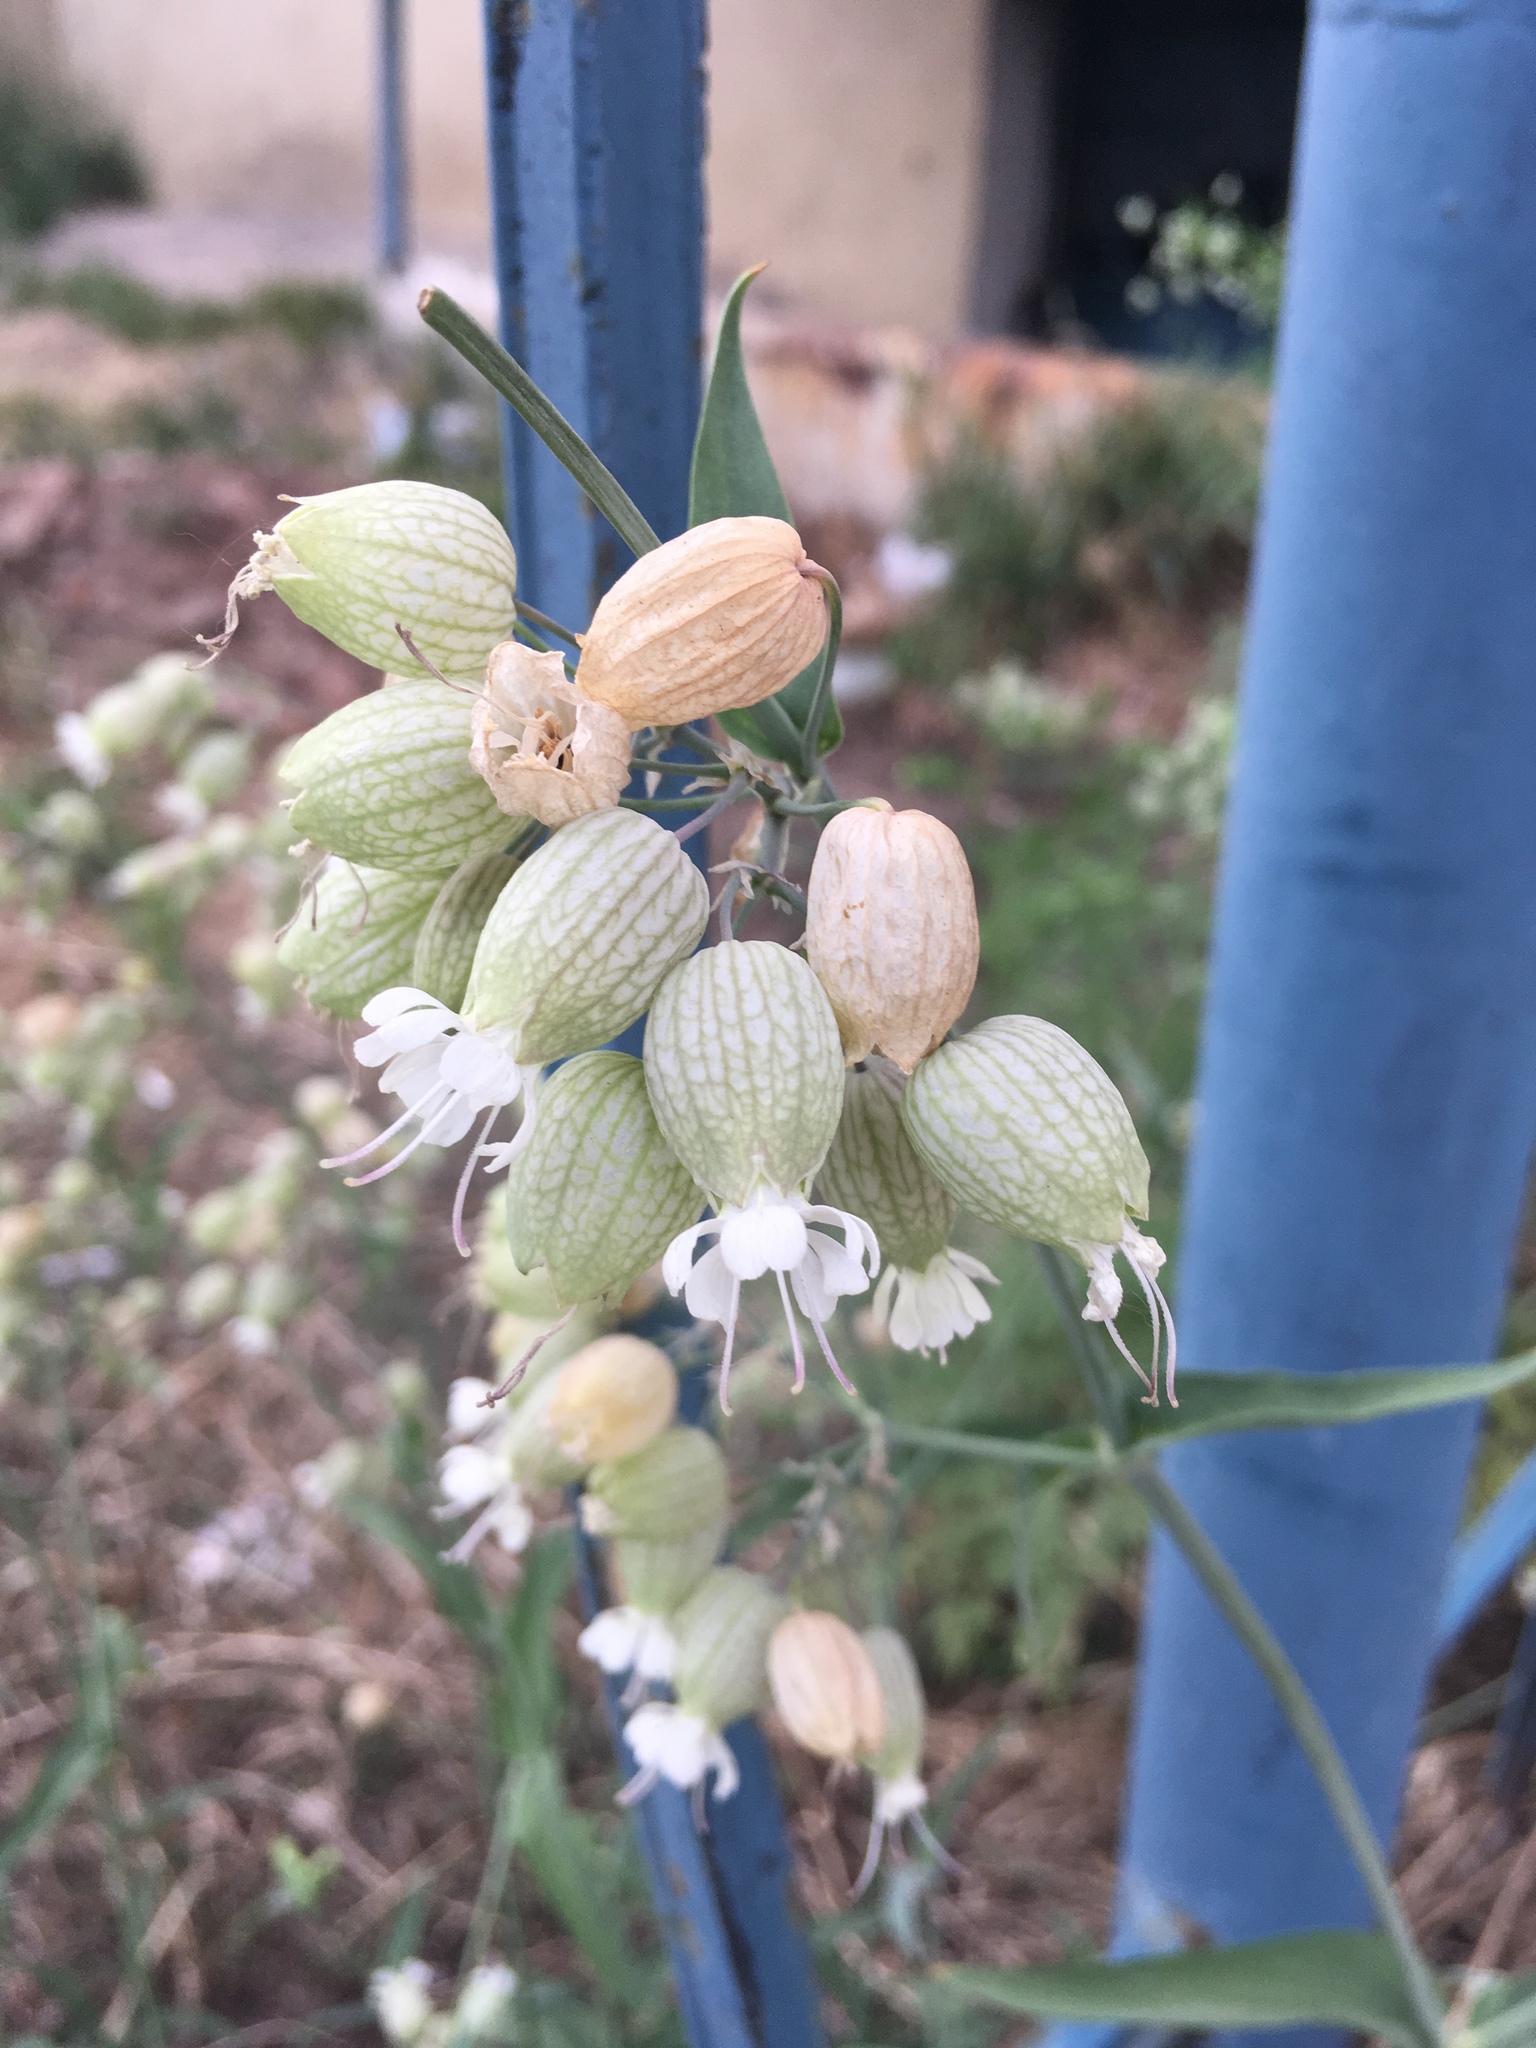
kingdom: Plantae
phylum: Tracheophyta
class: Magnoliopsida
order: Caryophyllales
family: Caryophyllaceae
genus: Silene
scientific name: Silene vulgaris
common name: Bladder campion
